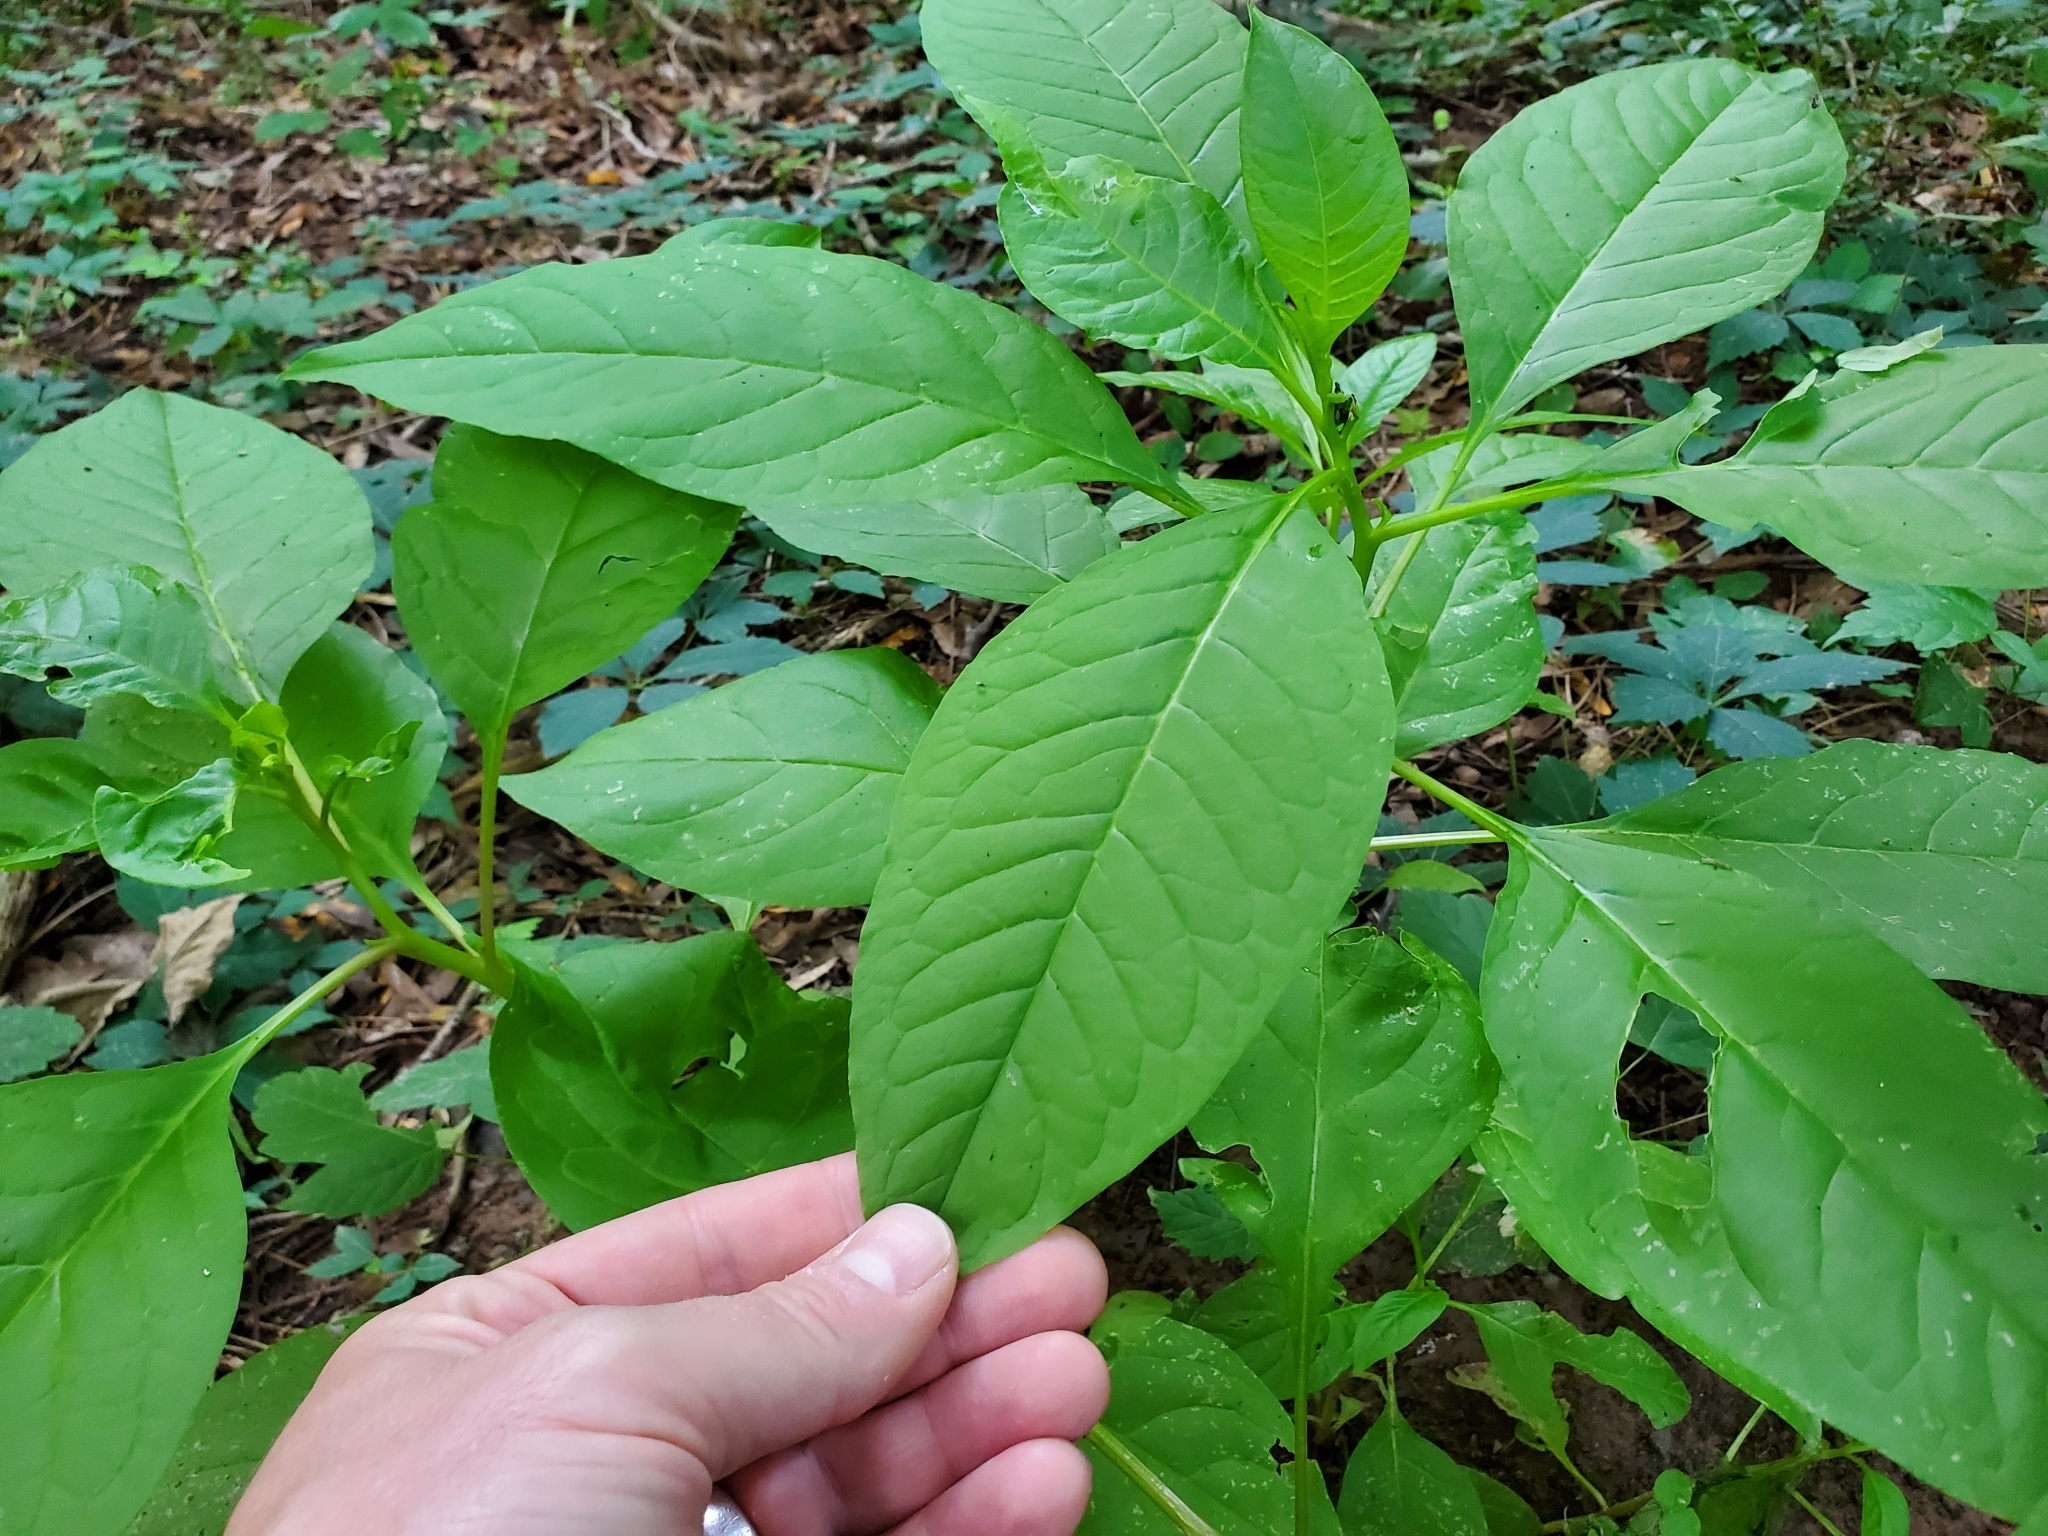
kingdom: Plantae
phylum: Tracheophyta
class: Magnoliopsida
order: Caryophyllales
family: Phytolaccaceae
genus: Phytolacca
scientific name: Phytolacca americana
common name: American pokeweed
